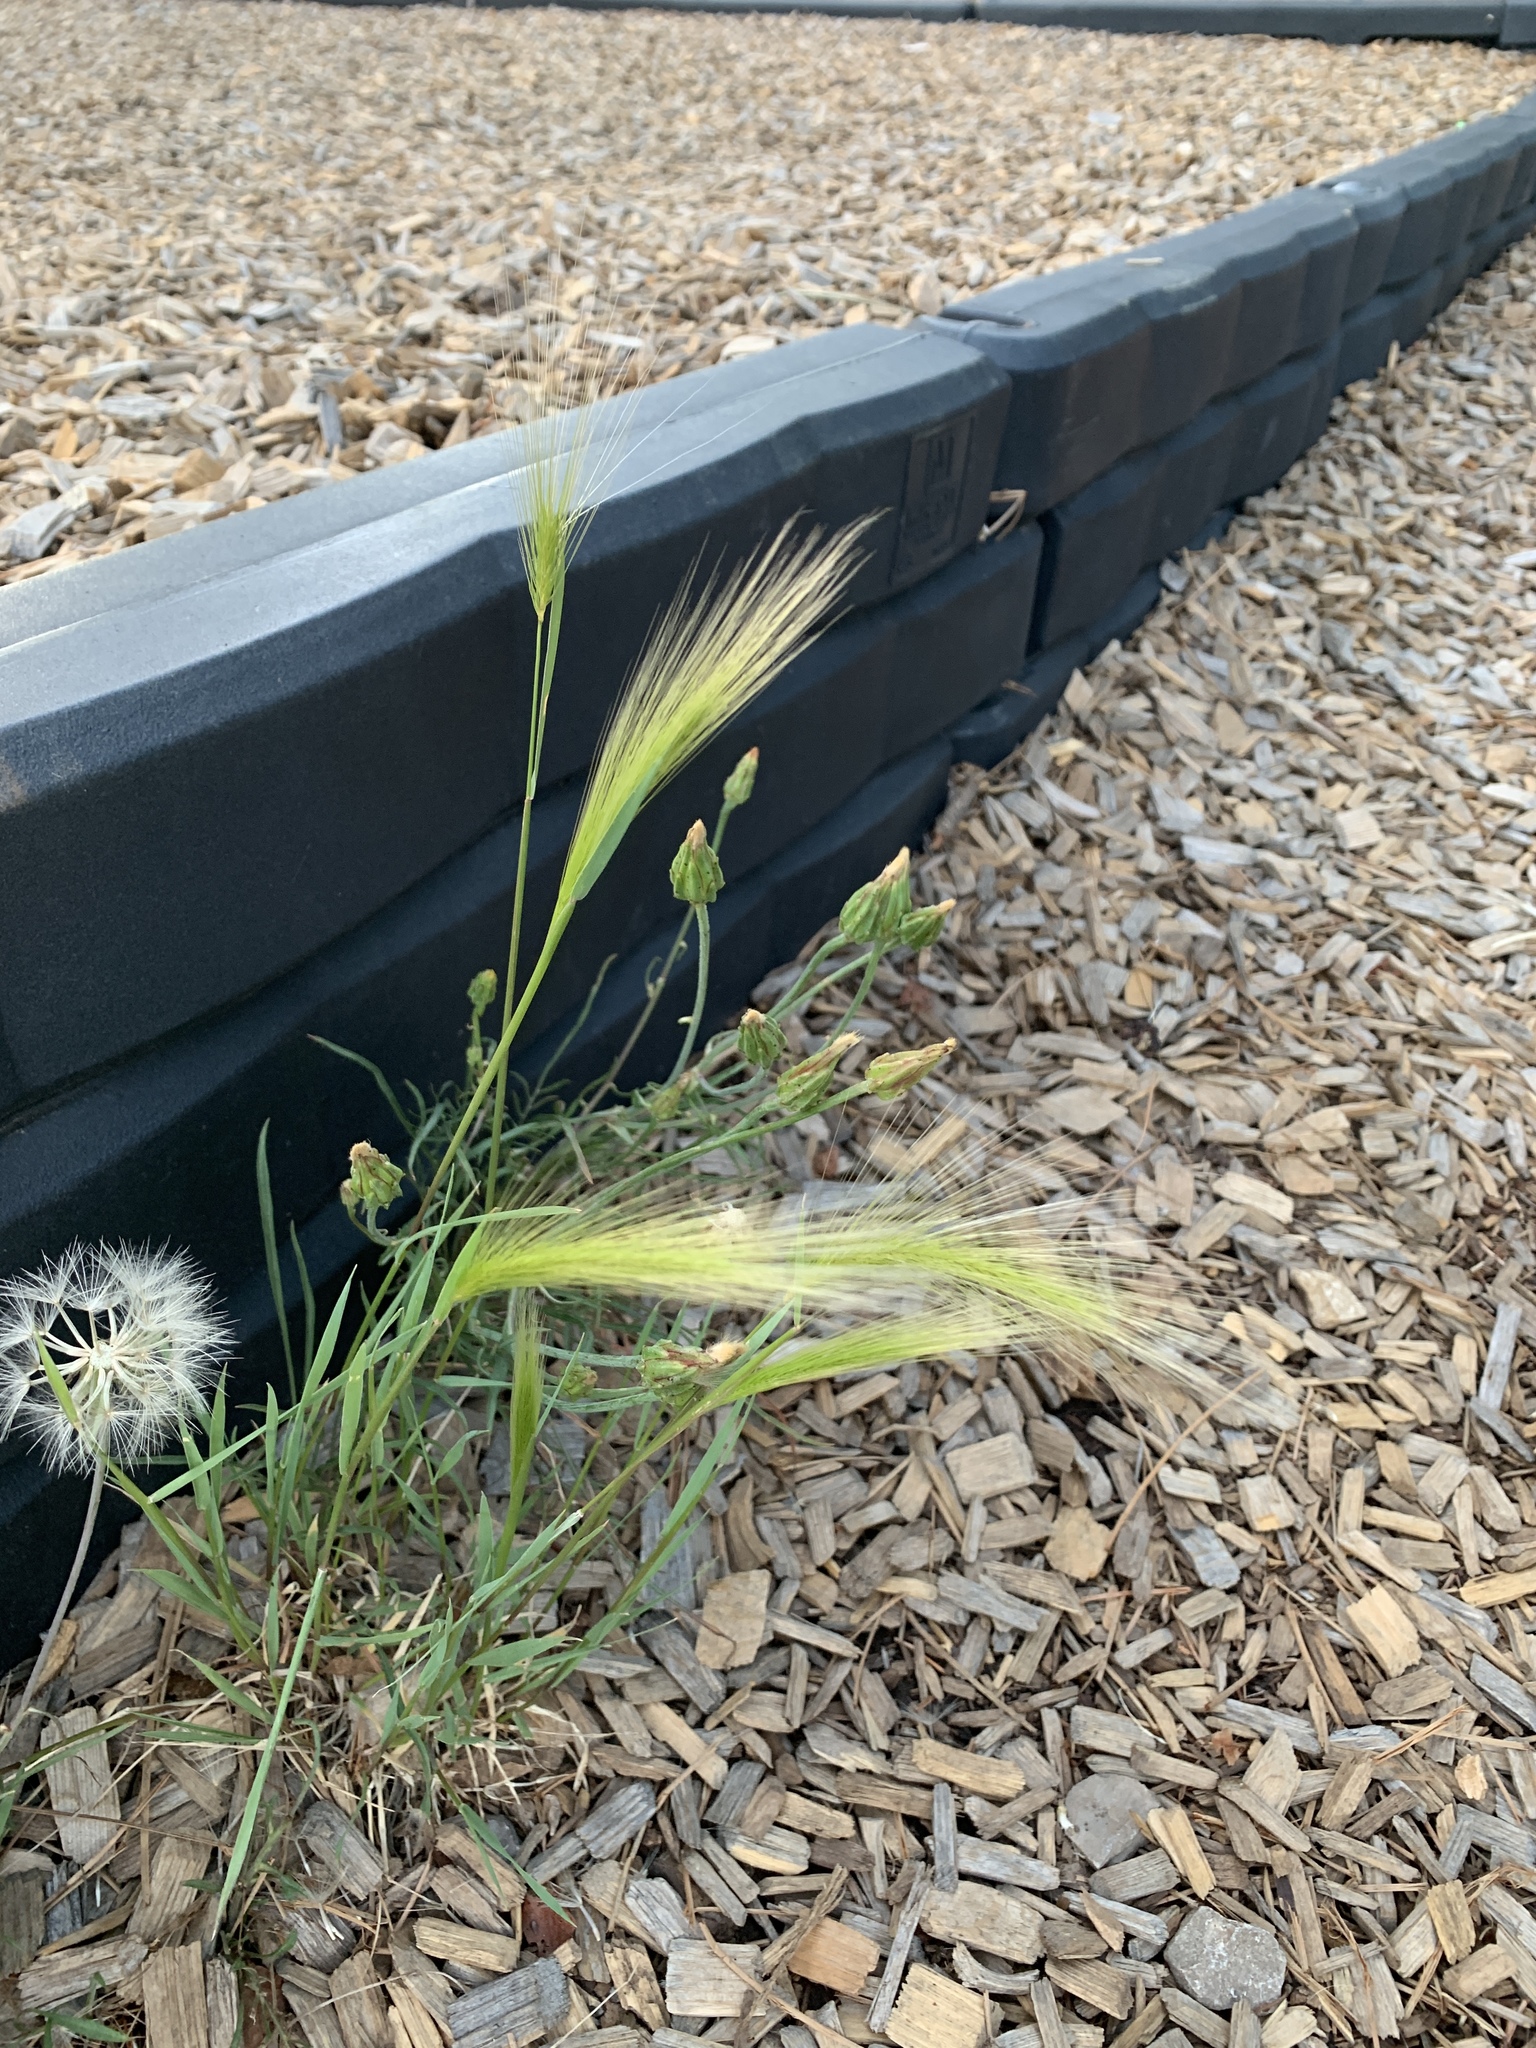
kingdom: Plantae
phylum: Tracheophyta
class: Liliopsida
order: Poales
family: Poaceae
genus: Hordeum
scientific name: Hordeum jubatum
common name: Foxtail barley
